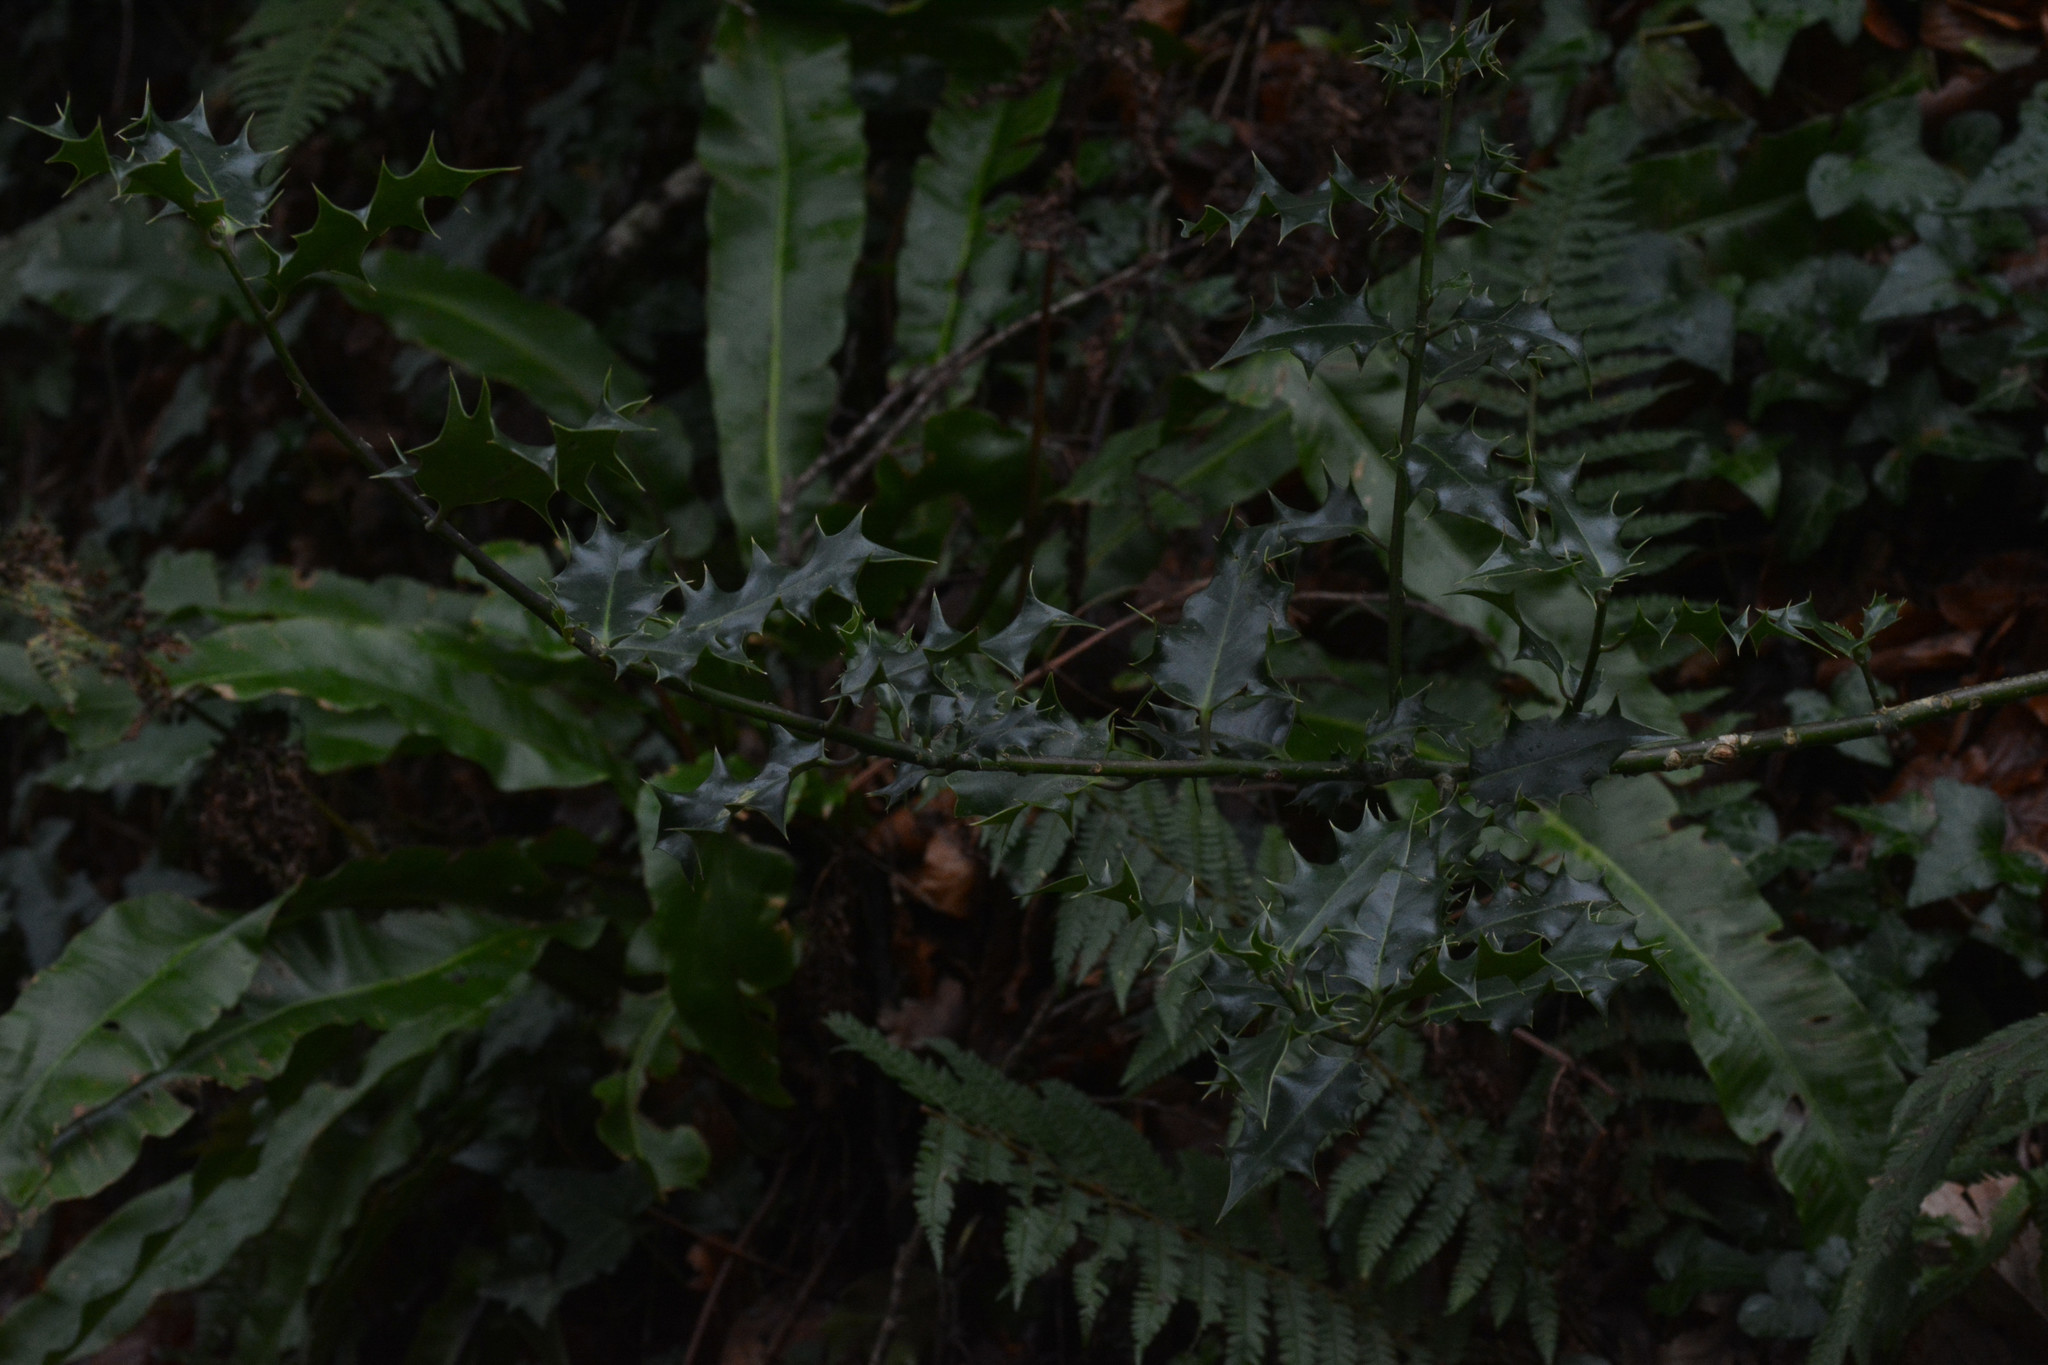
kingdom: Plantae
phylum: Tracheophyta
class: Magnoliopsida
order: Aquifoliales
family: Aquifoliaceae
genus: Ilex
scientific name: Ilex aquifolium
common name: English holly
